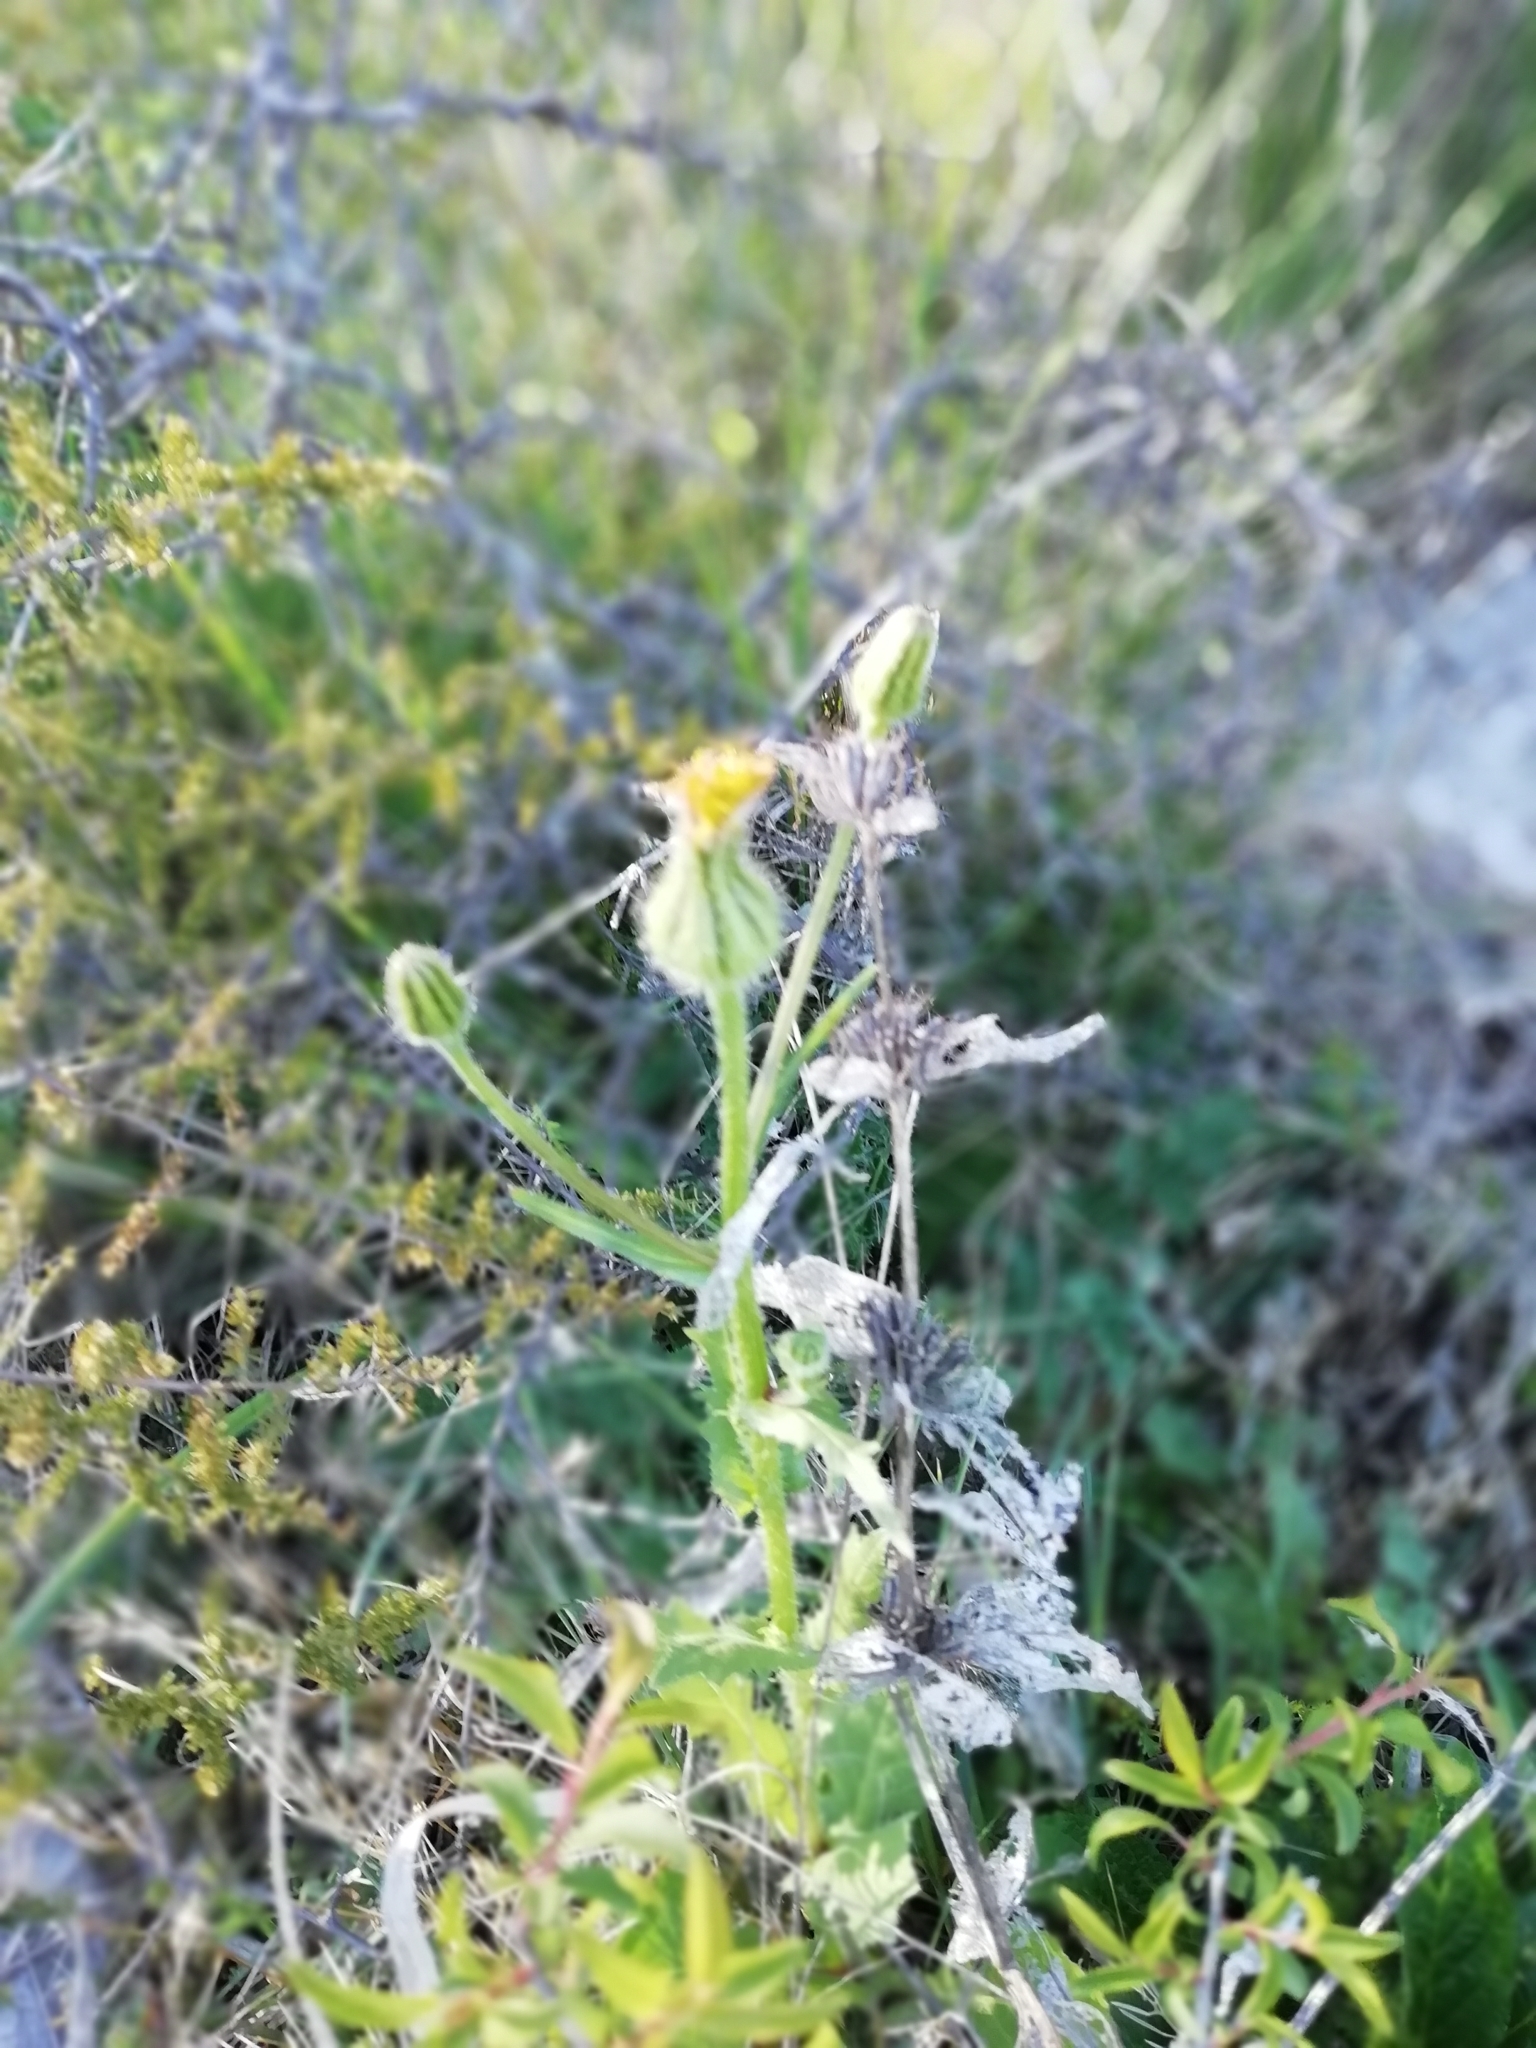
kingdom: Plantae
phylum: Tracheophyta
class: Magnoliopsida
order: Asterales
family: Asteraceae
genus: Urospermum
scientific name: Urospermum picroides
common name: False hawkbit
